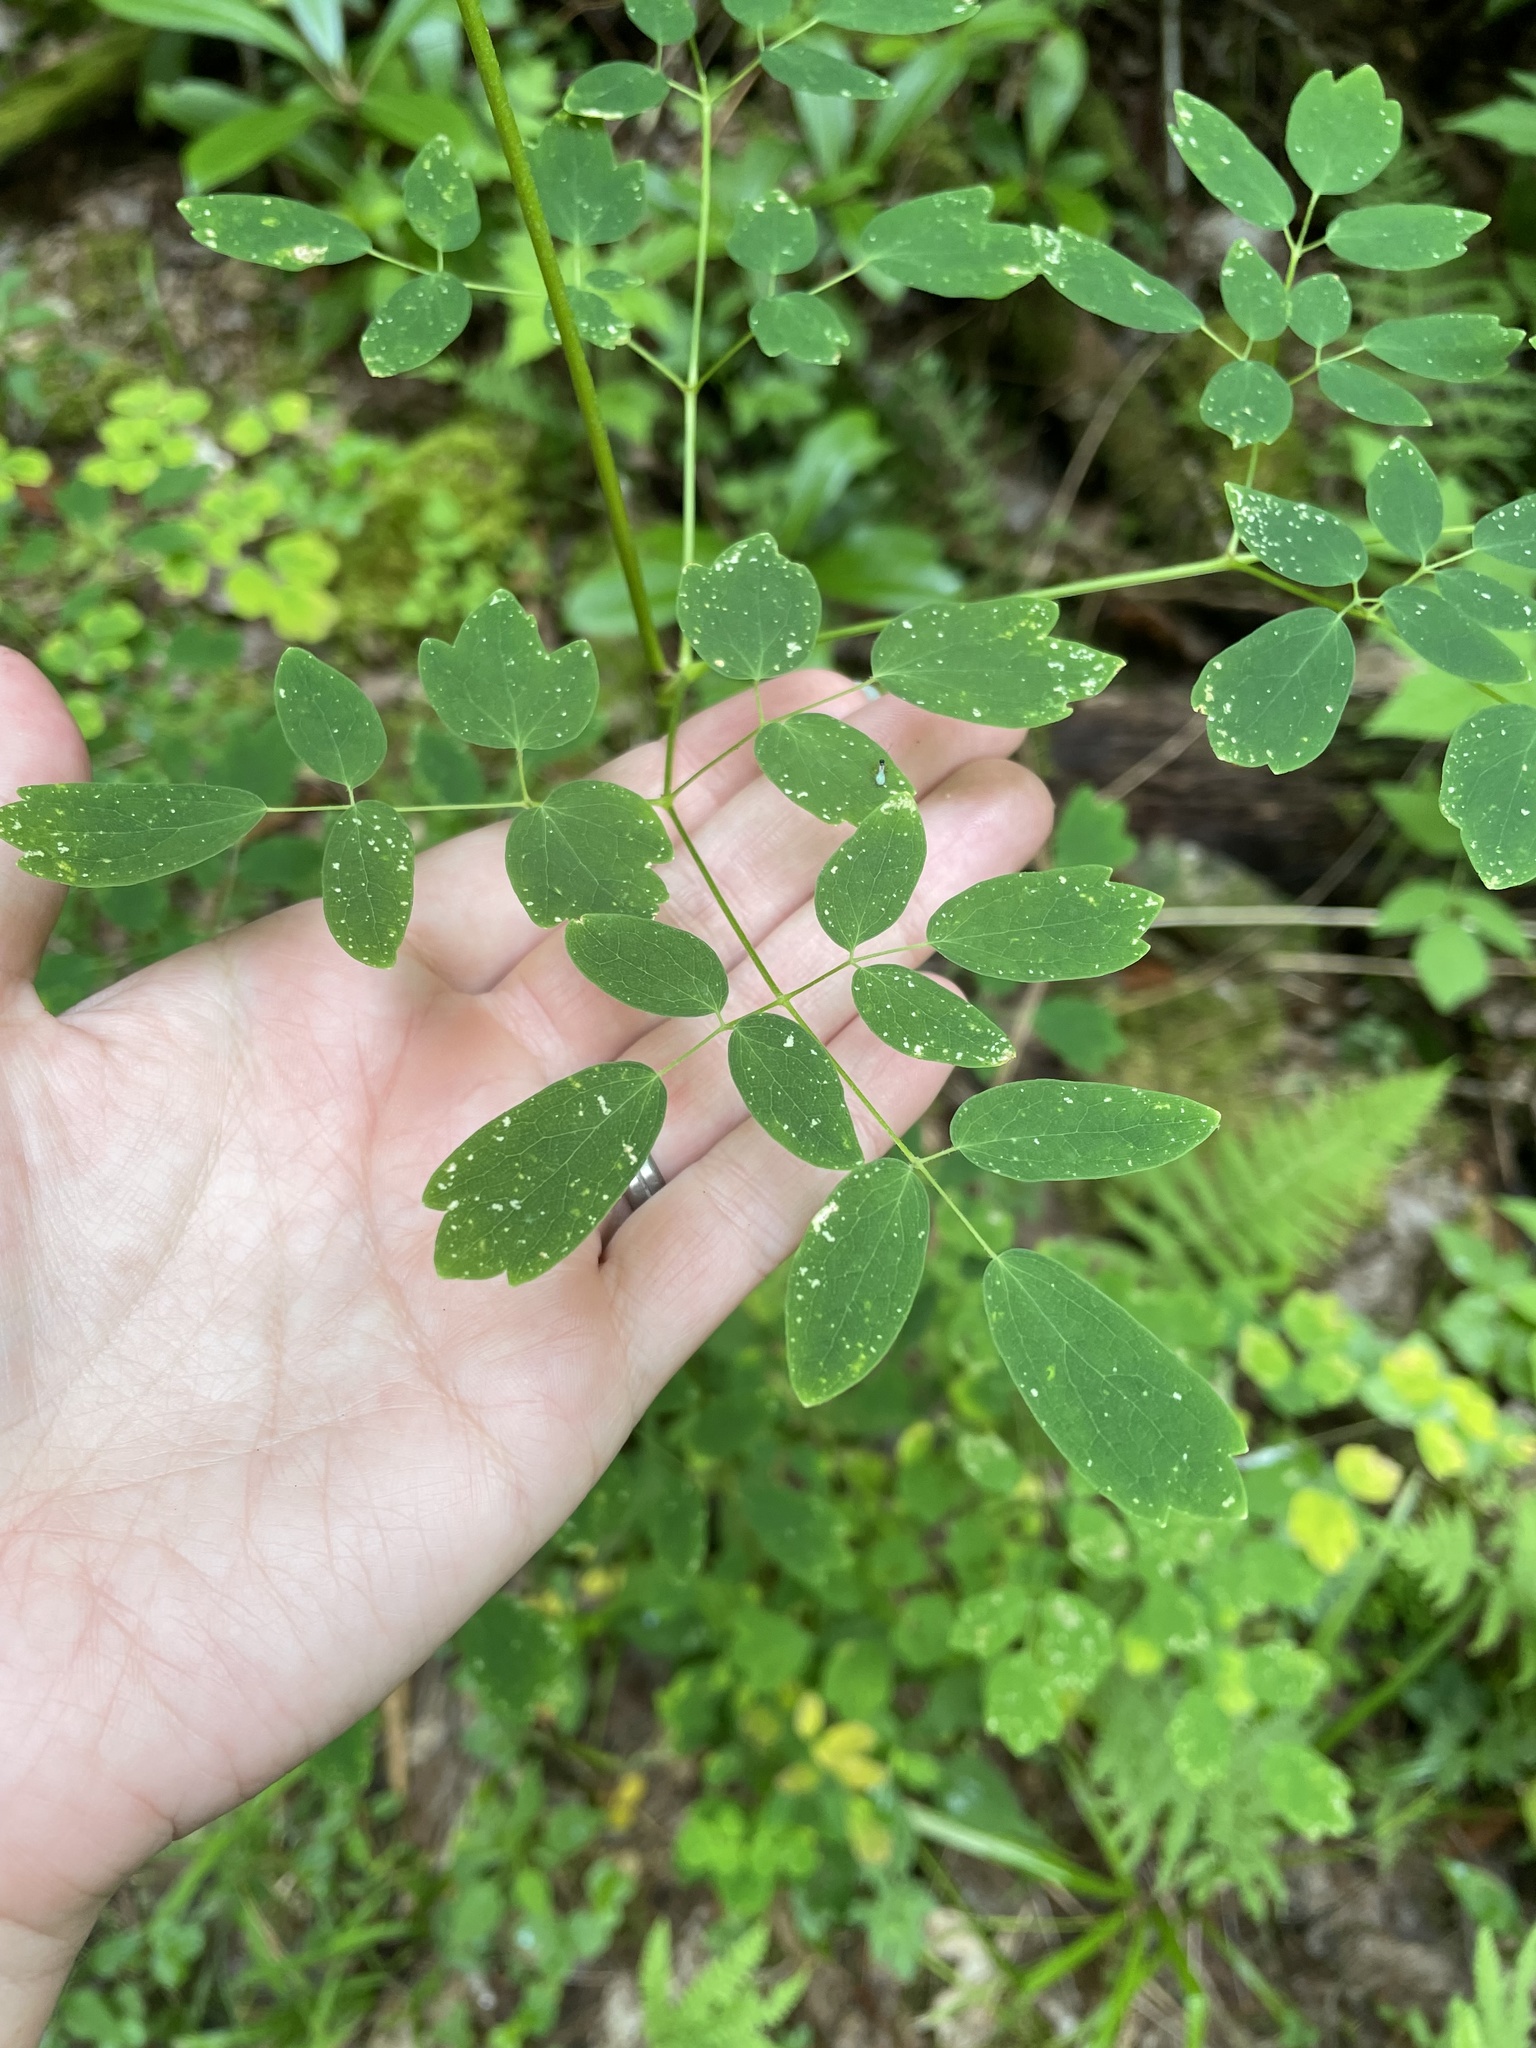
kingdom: Plantae
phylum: Tracheophyta
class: Magnoliopsida
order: Ranunculales
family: Ranunculaceae
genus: Thalictrum
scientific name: Thalictrum pubescens
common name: King-of-the-meadow
